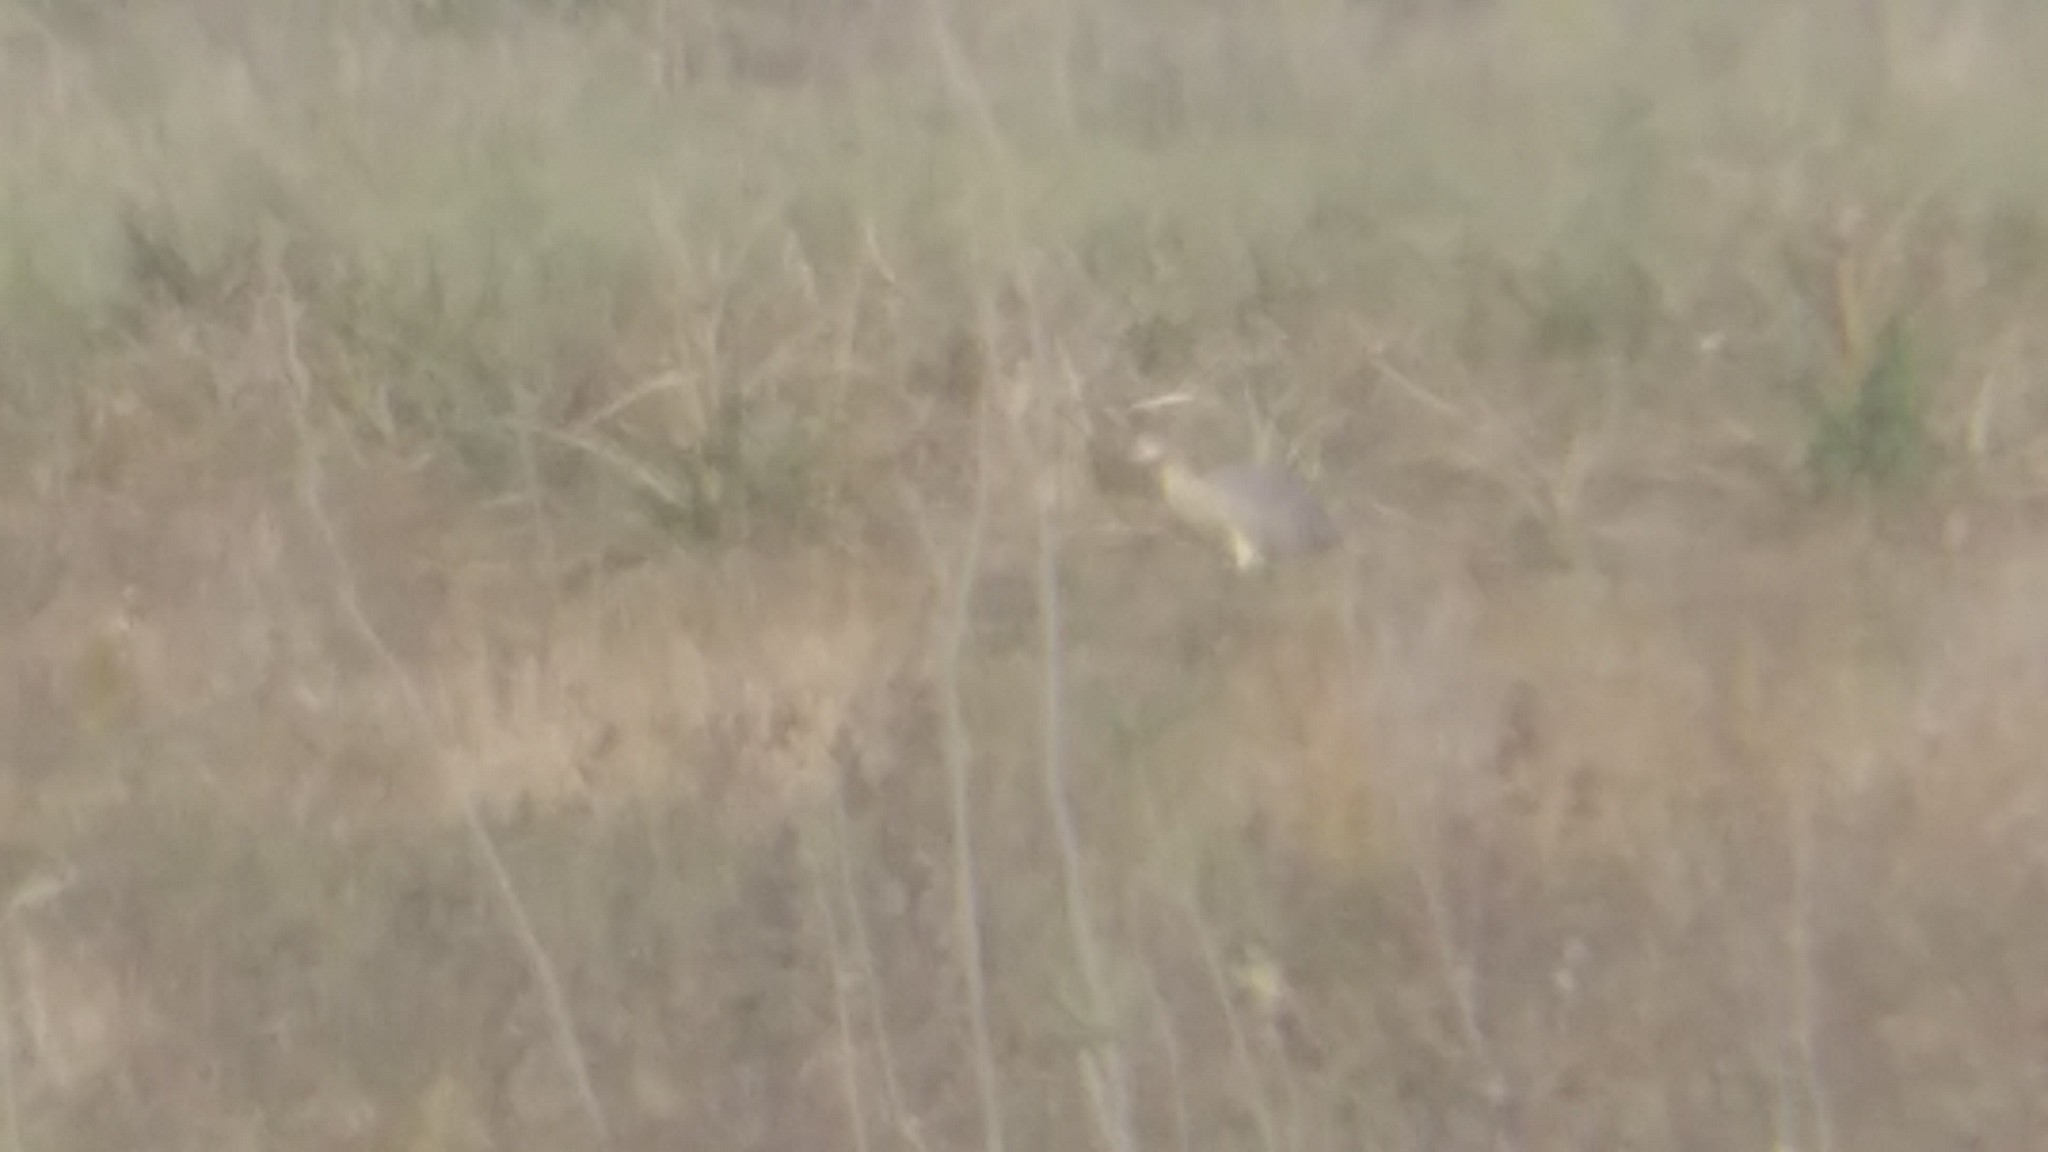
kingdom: Animalia
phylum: Chordata
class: Aves
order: Pelecaniformes
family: Ardeidae
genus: Syrigma
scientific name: Syrigma sibilatrix
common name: Whistling heron
